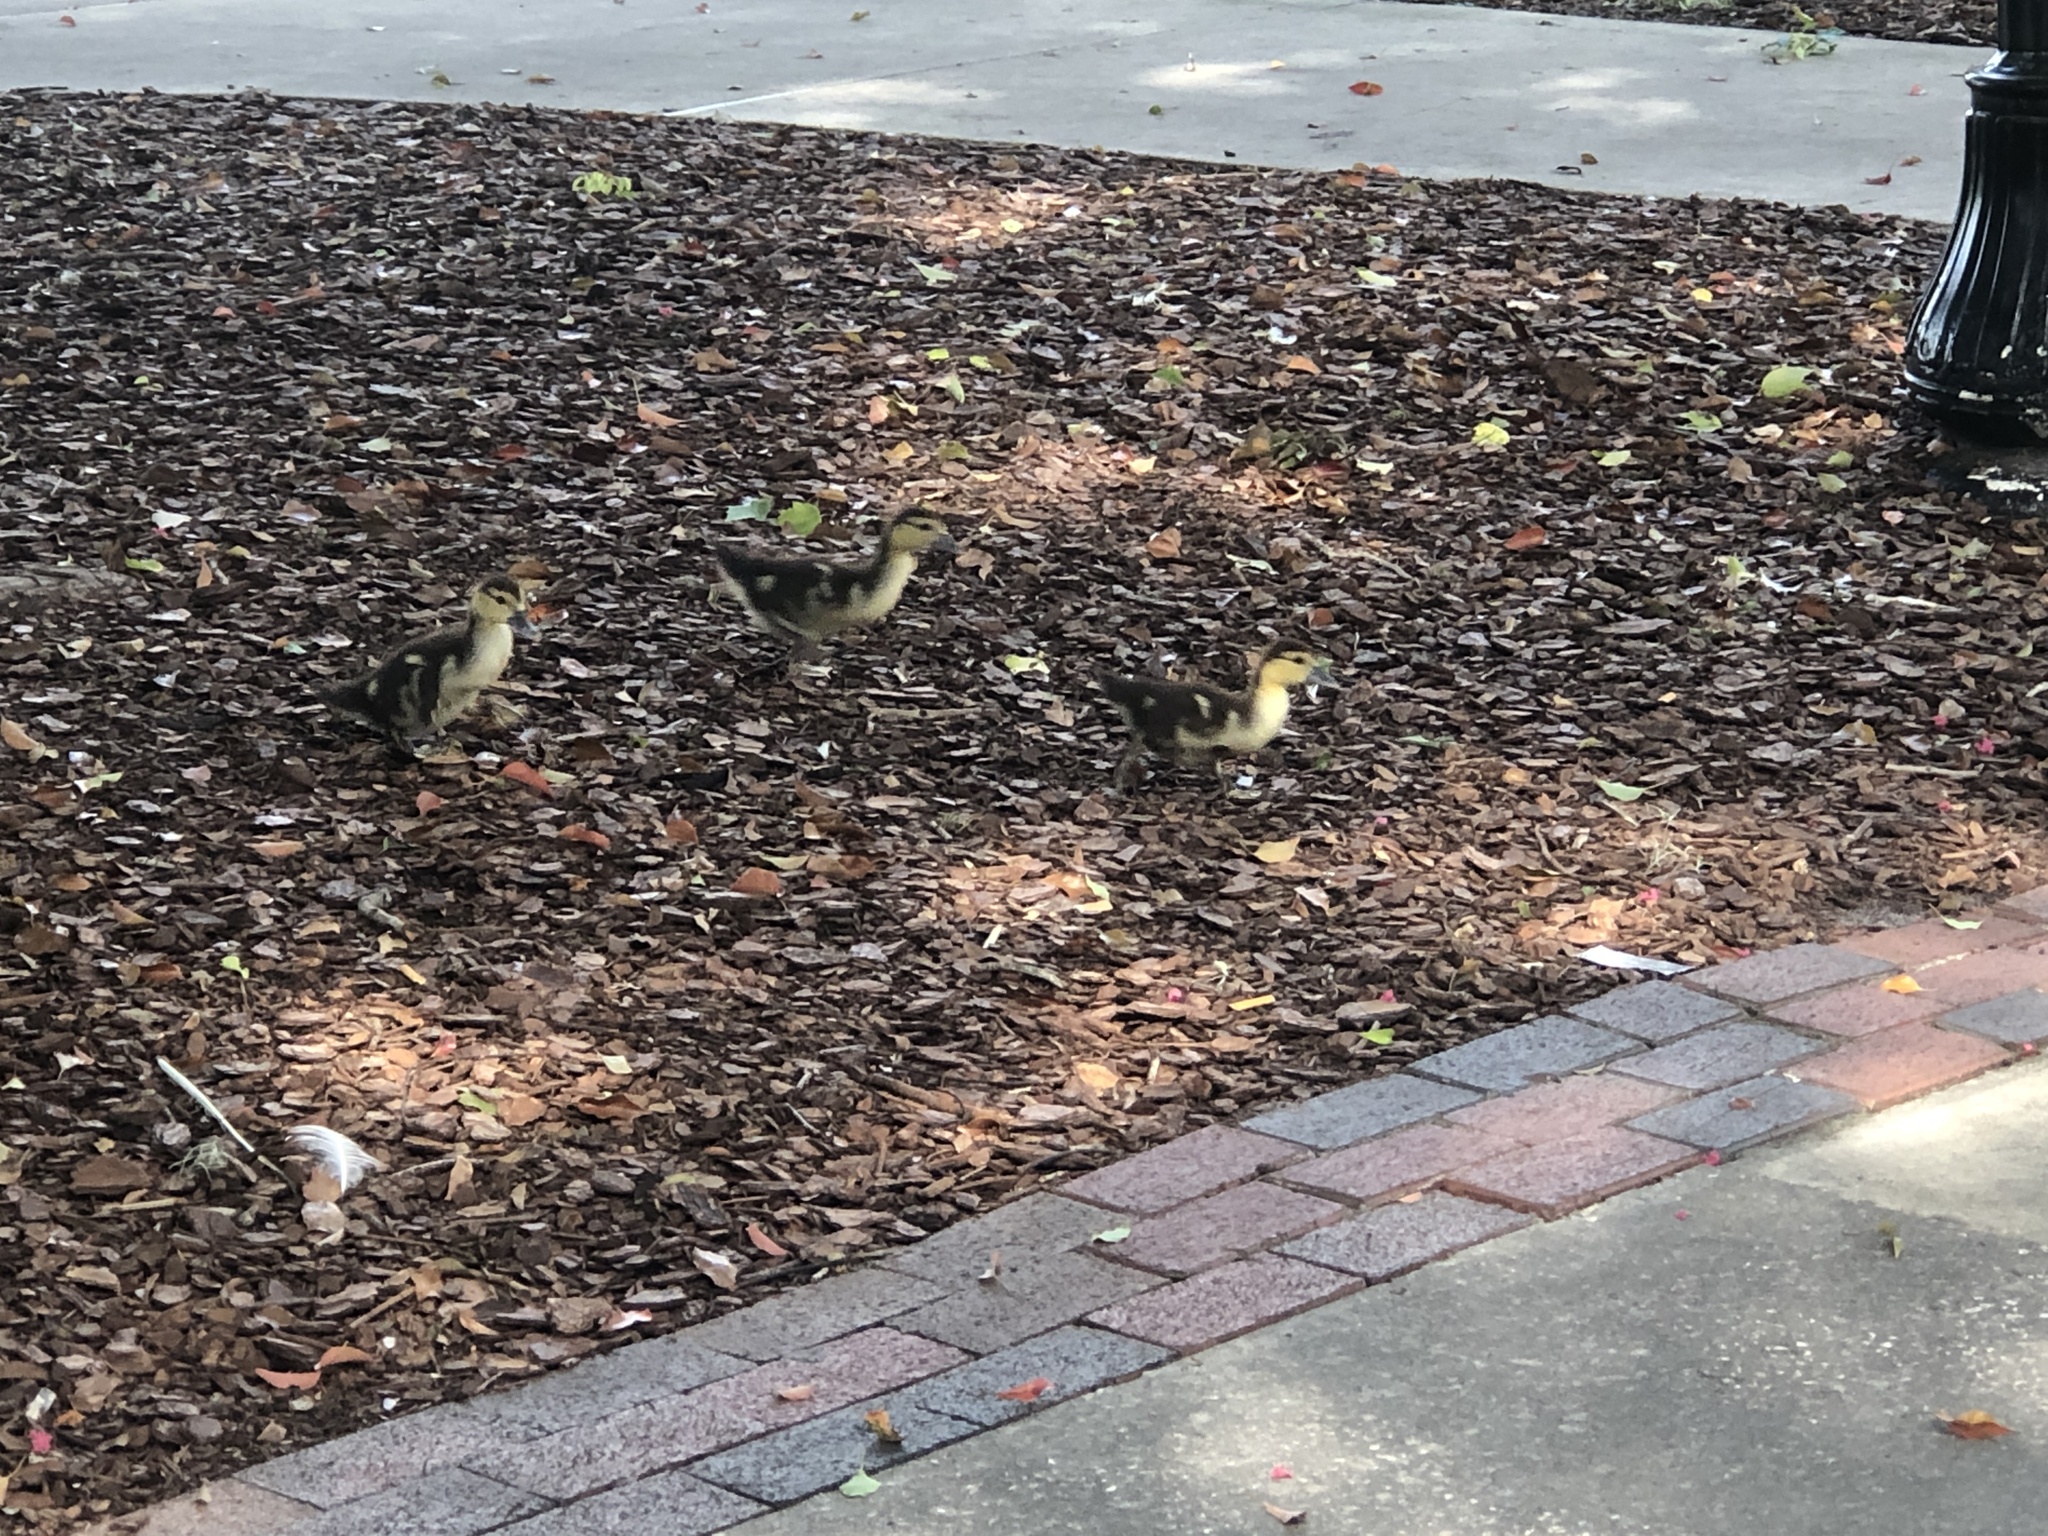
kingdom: Animalia
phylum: Chordata
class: Aves
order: Anseriformes
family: Anatidae
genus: Cairina
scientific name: Cairina moschata
